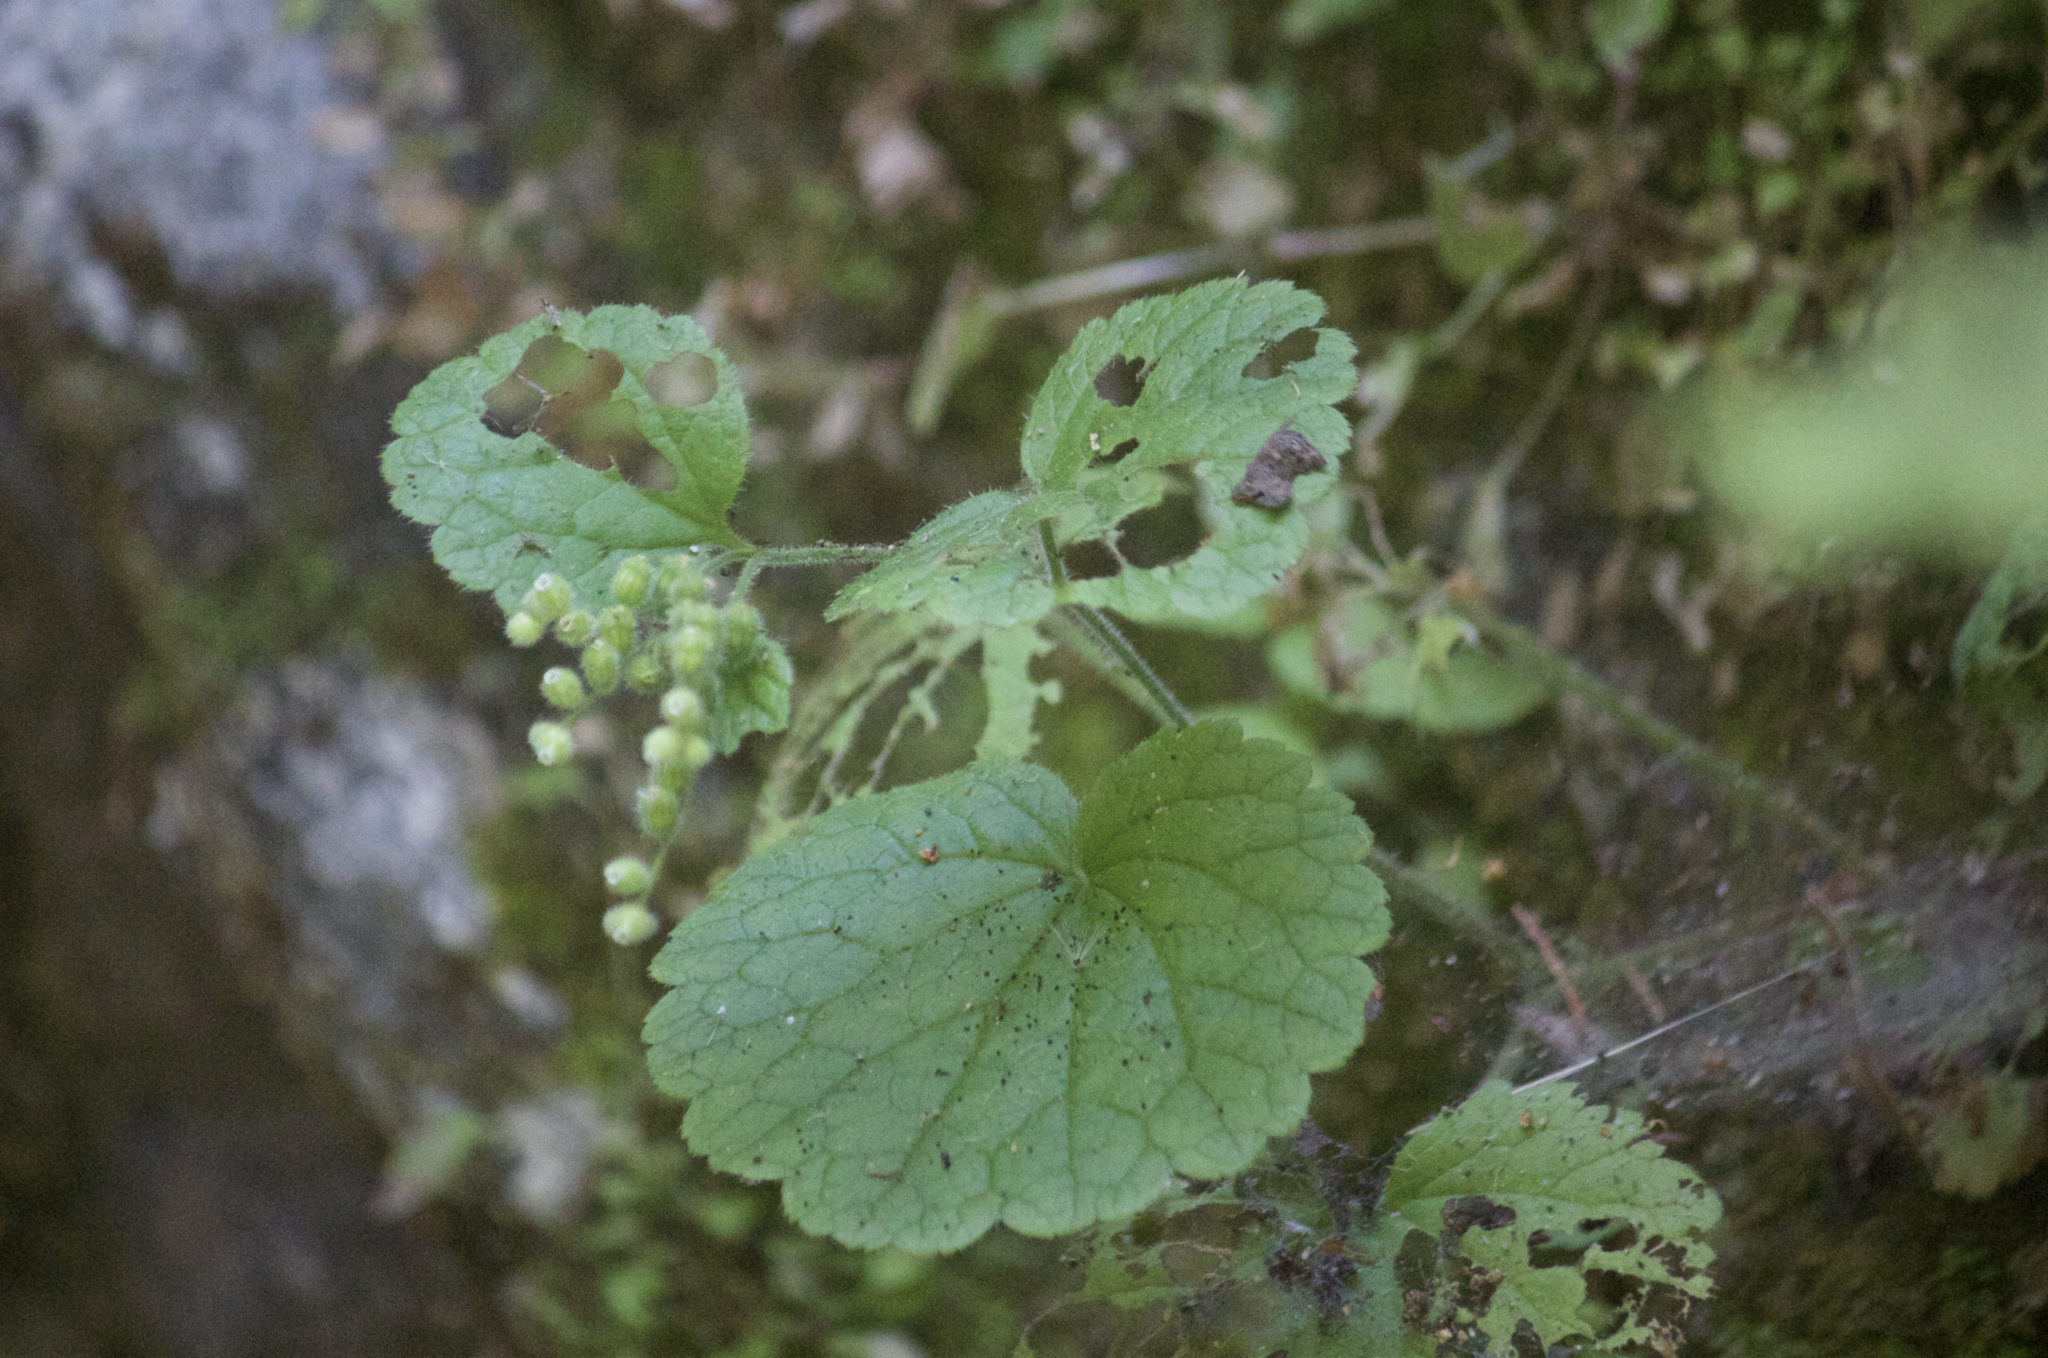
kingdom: Plantae
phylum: Tracheophyta
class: Magnoliopsida
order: Saxifragales
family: Saxifragaceae
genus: Boykinia
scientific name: Boykinia rotundifolia
